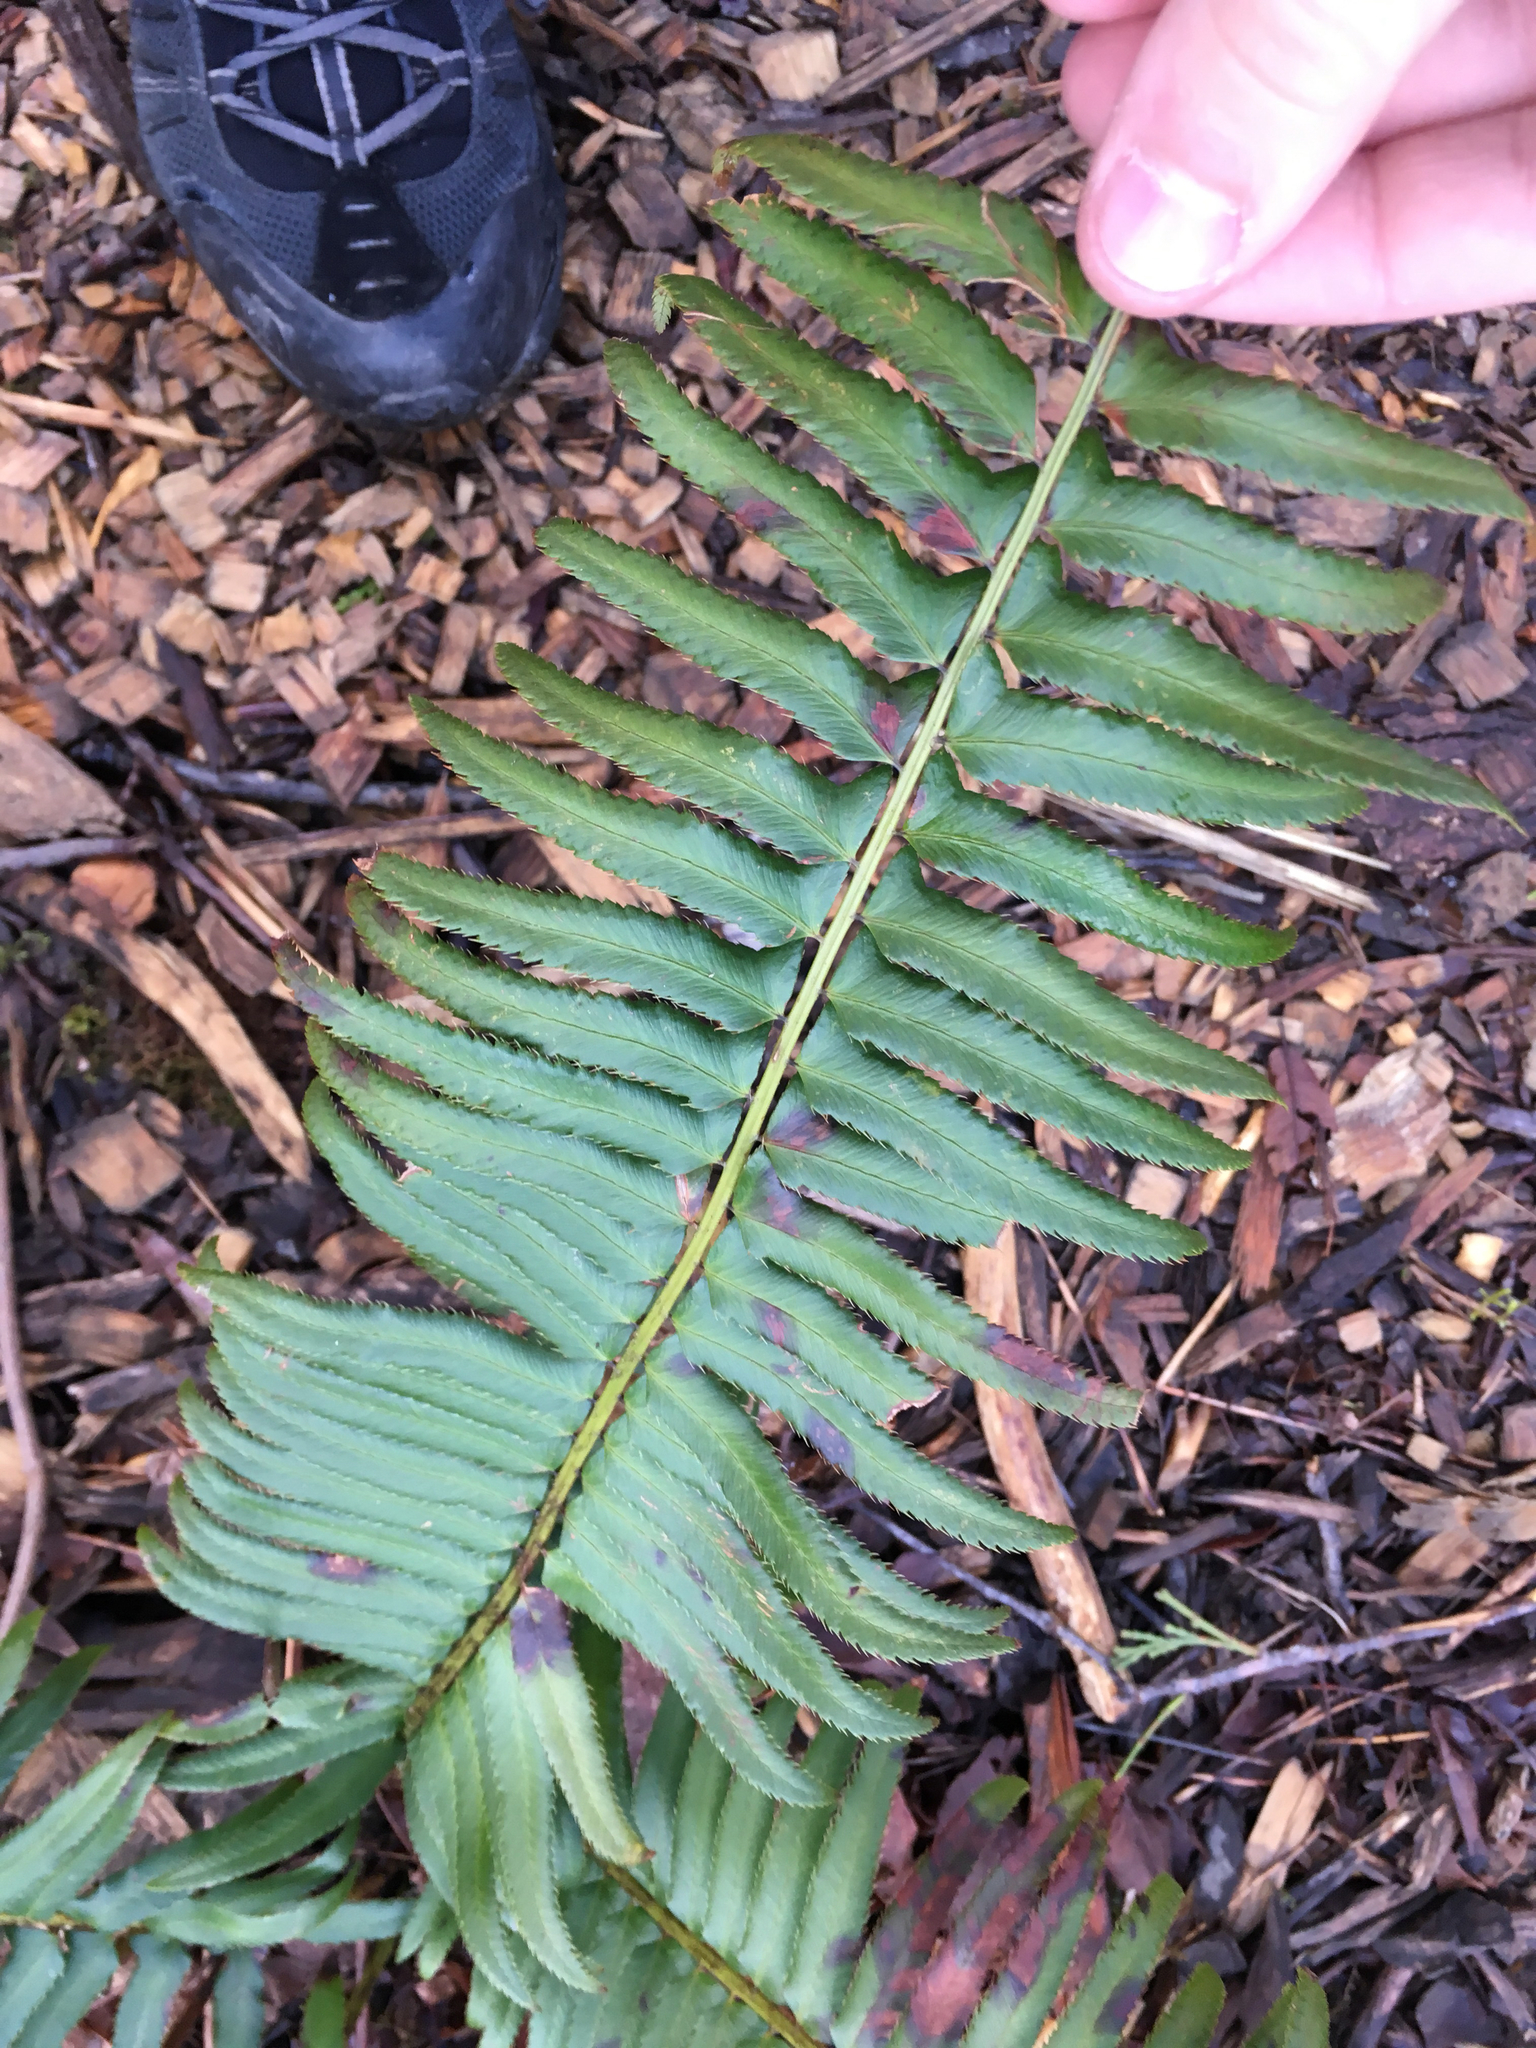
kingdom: Plantae
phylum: Tracheophyta
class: Polypodiopsida
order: Polypodiales
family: Dryopteridaceae
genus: Polystichum
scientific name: Polystichum munitum
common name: Western sword-fern
